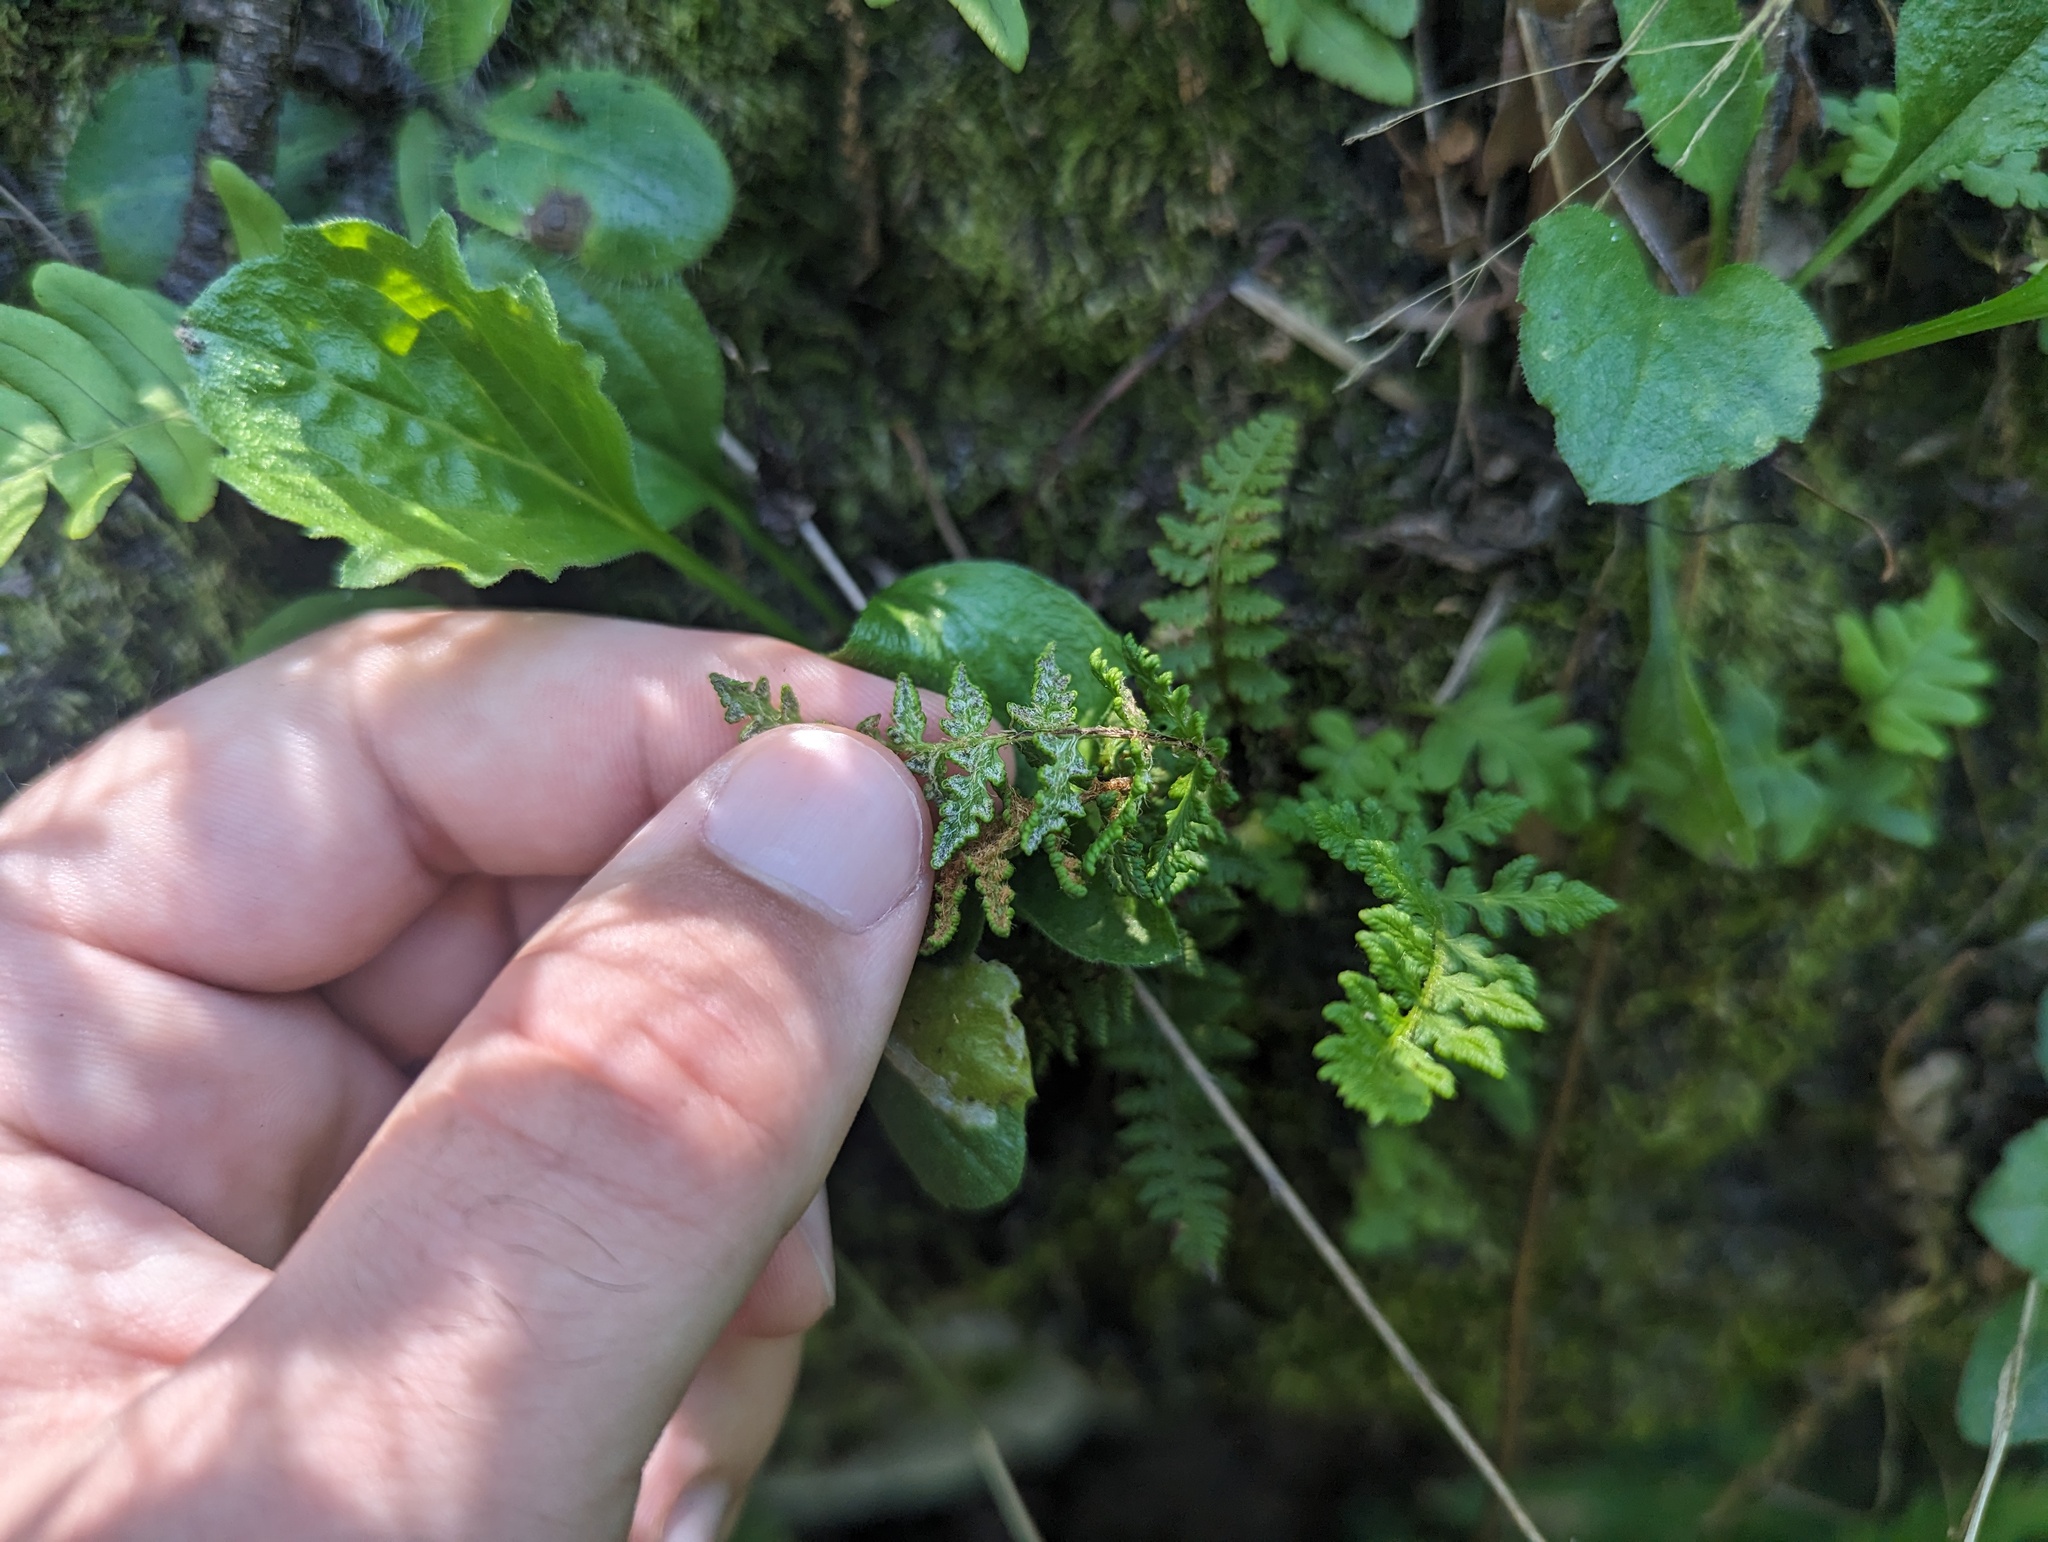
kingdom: Plantae
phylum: Tracheophyta
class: Polypodiopsida
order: Polypodiales
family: Woodsiaceae
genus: Woodsia
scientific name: Woodsia ilvensis
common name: Fragrant woodsia
